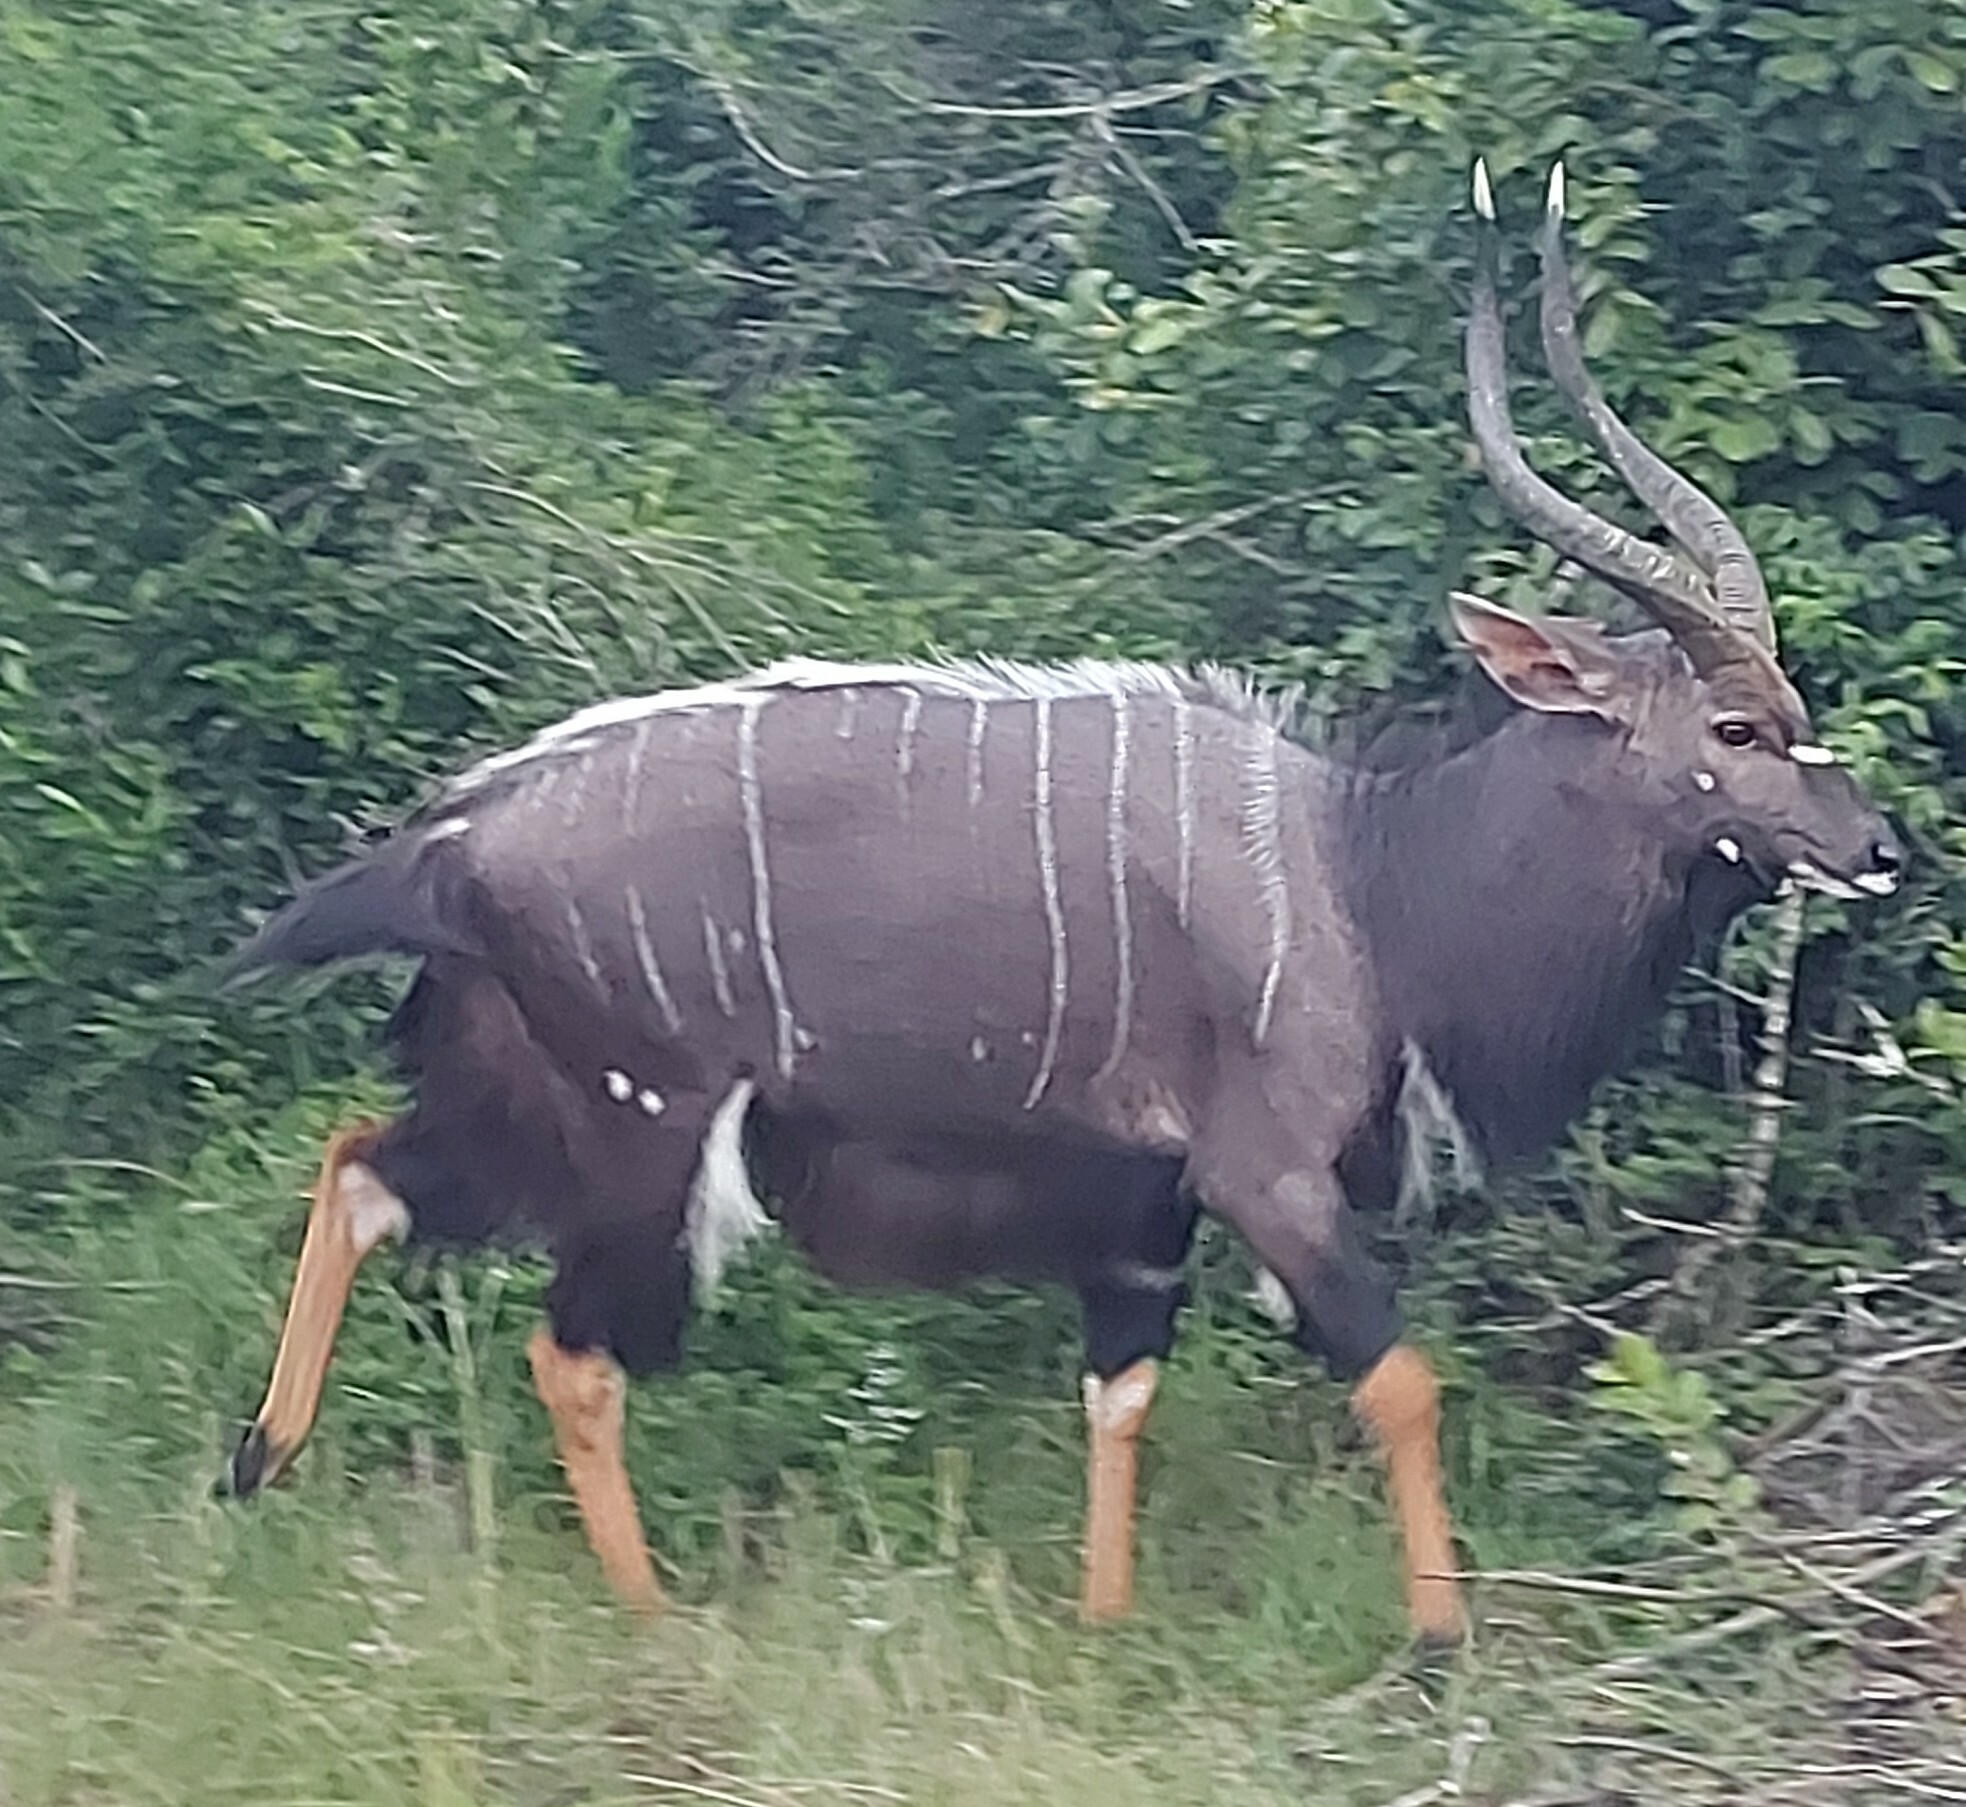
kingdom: Animalia
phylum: Chordata
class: Mammalia
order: Artiodactyla
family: Bovidae
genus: Tragelaphus
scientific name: Tragelaphus angasii
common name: Nyala
